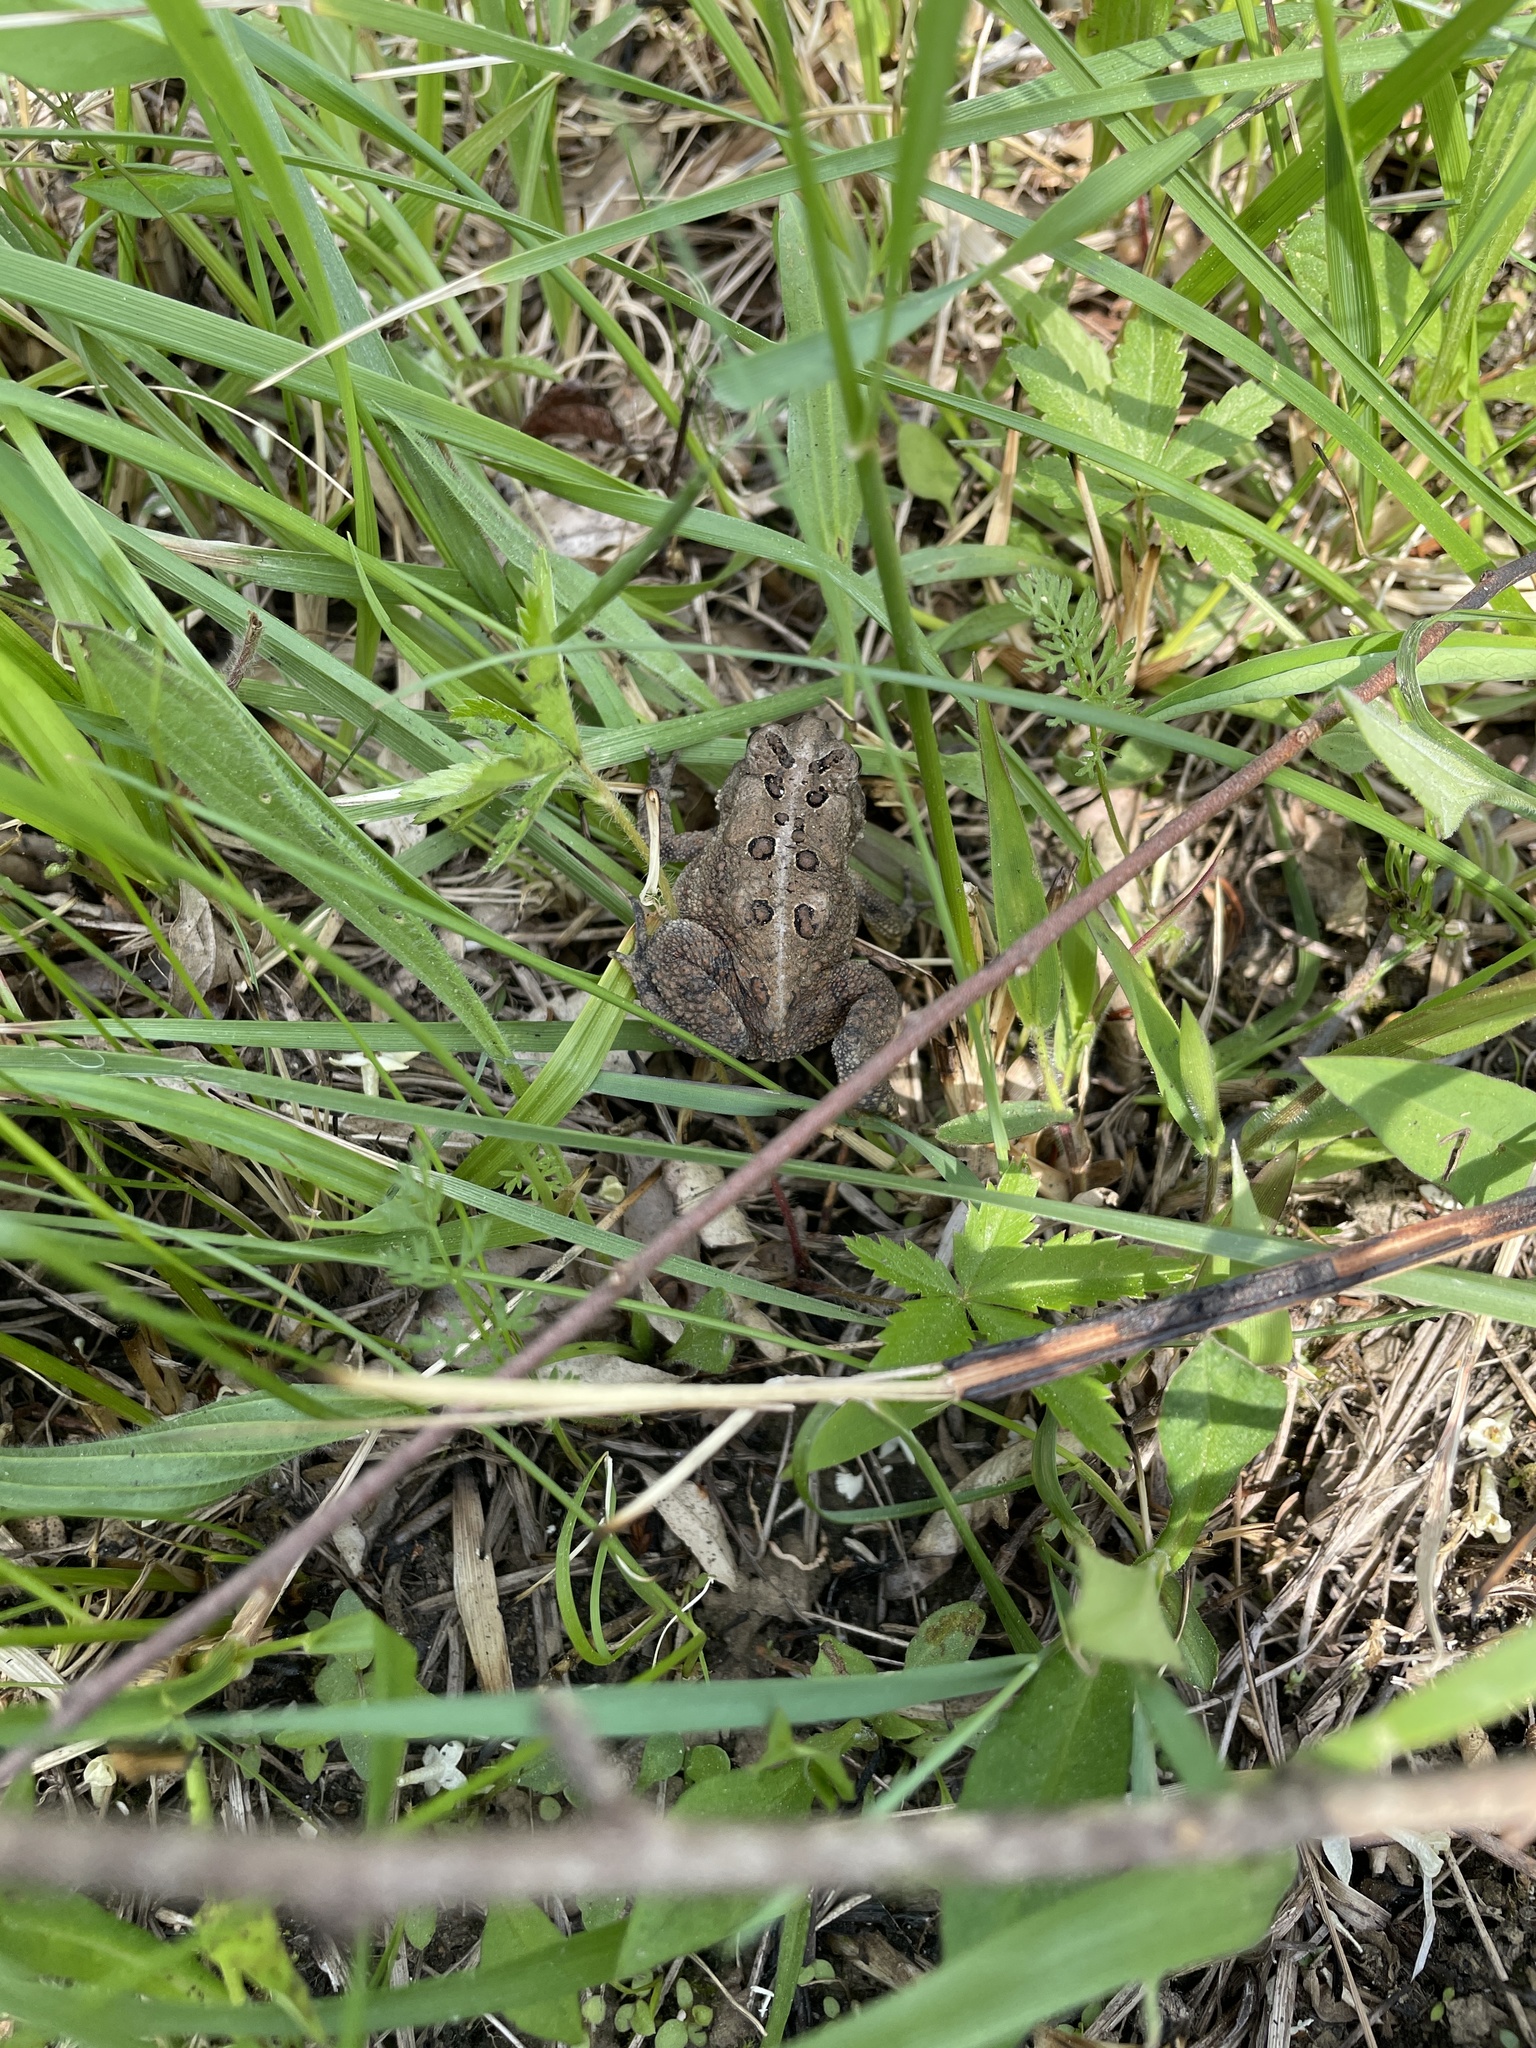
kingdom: Animalia
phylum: Chordata
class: Amphibia
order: Anura
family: Bufonidae
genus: Anaxyrus
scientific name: Anaxyrus americanus
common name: American toad
